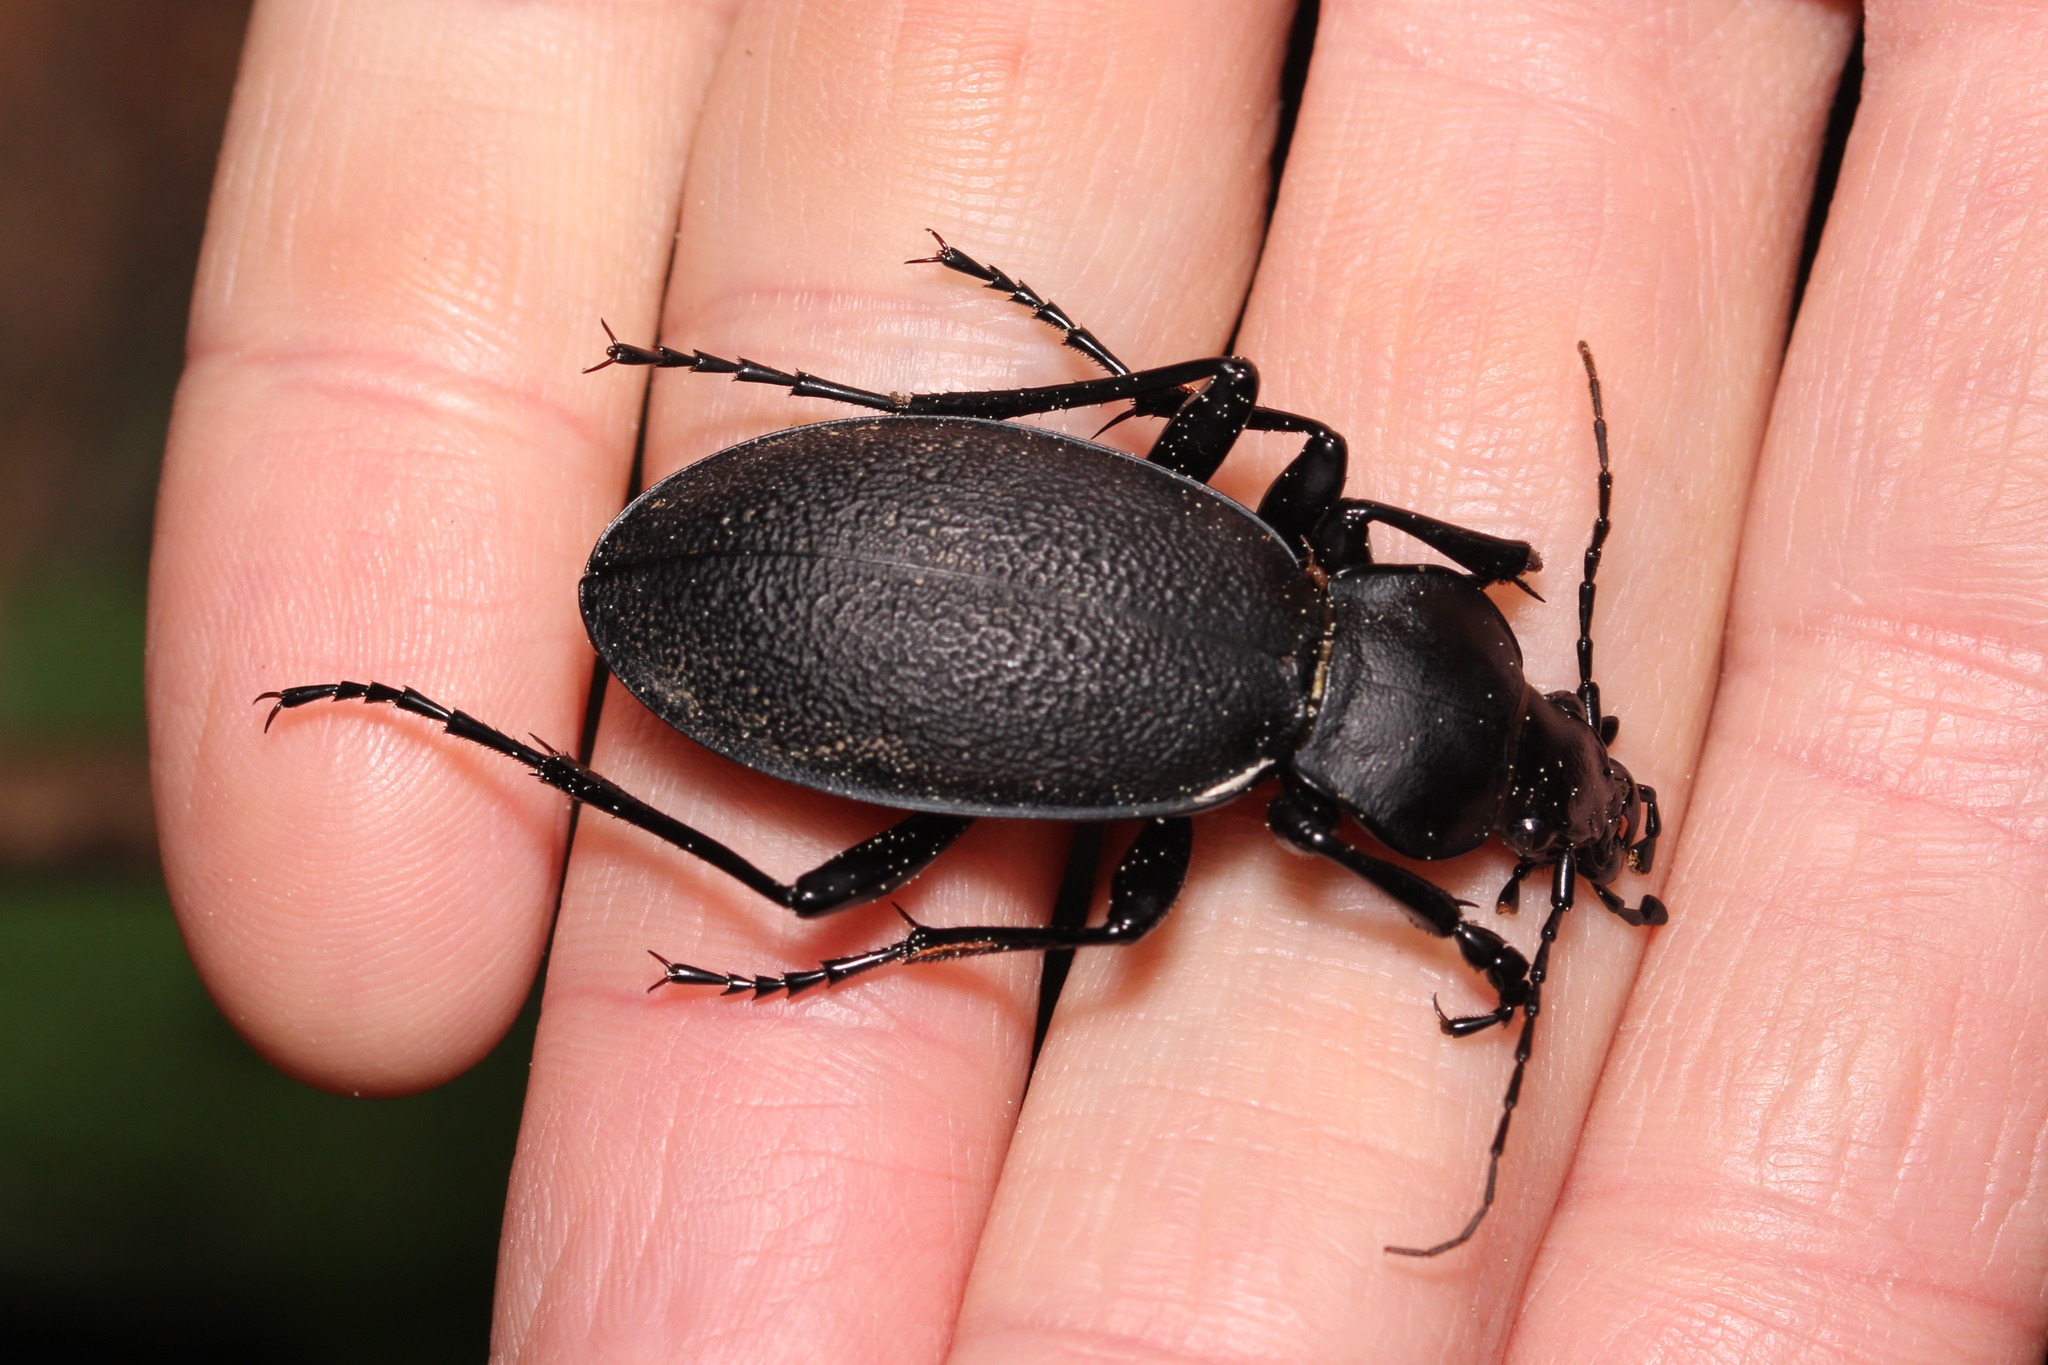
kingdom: Animalia
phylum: Arthropoda
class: Insecta
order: Coleoptera
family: Carabidae
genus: Carabus
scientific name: Carabus coriaceus
